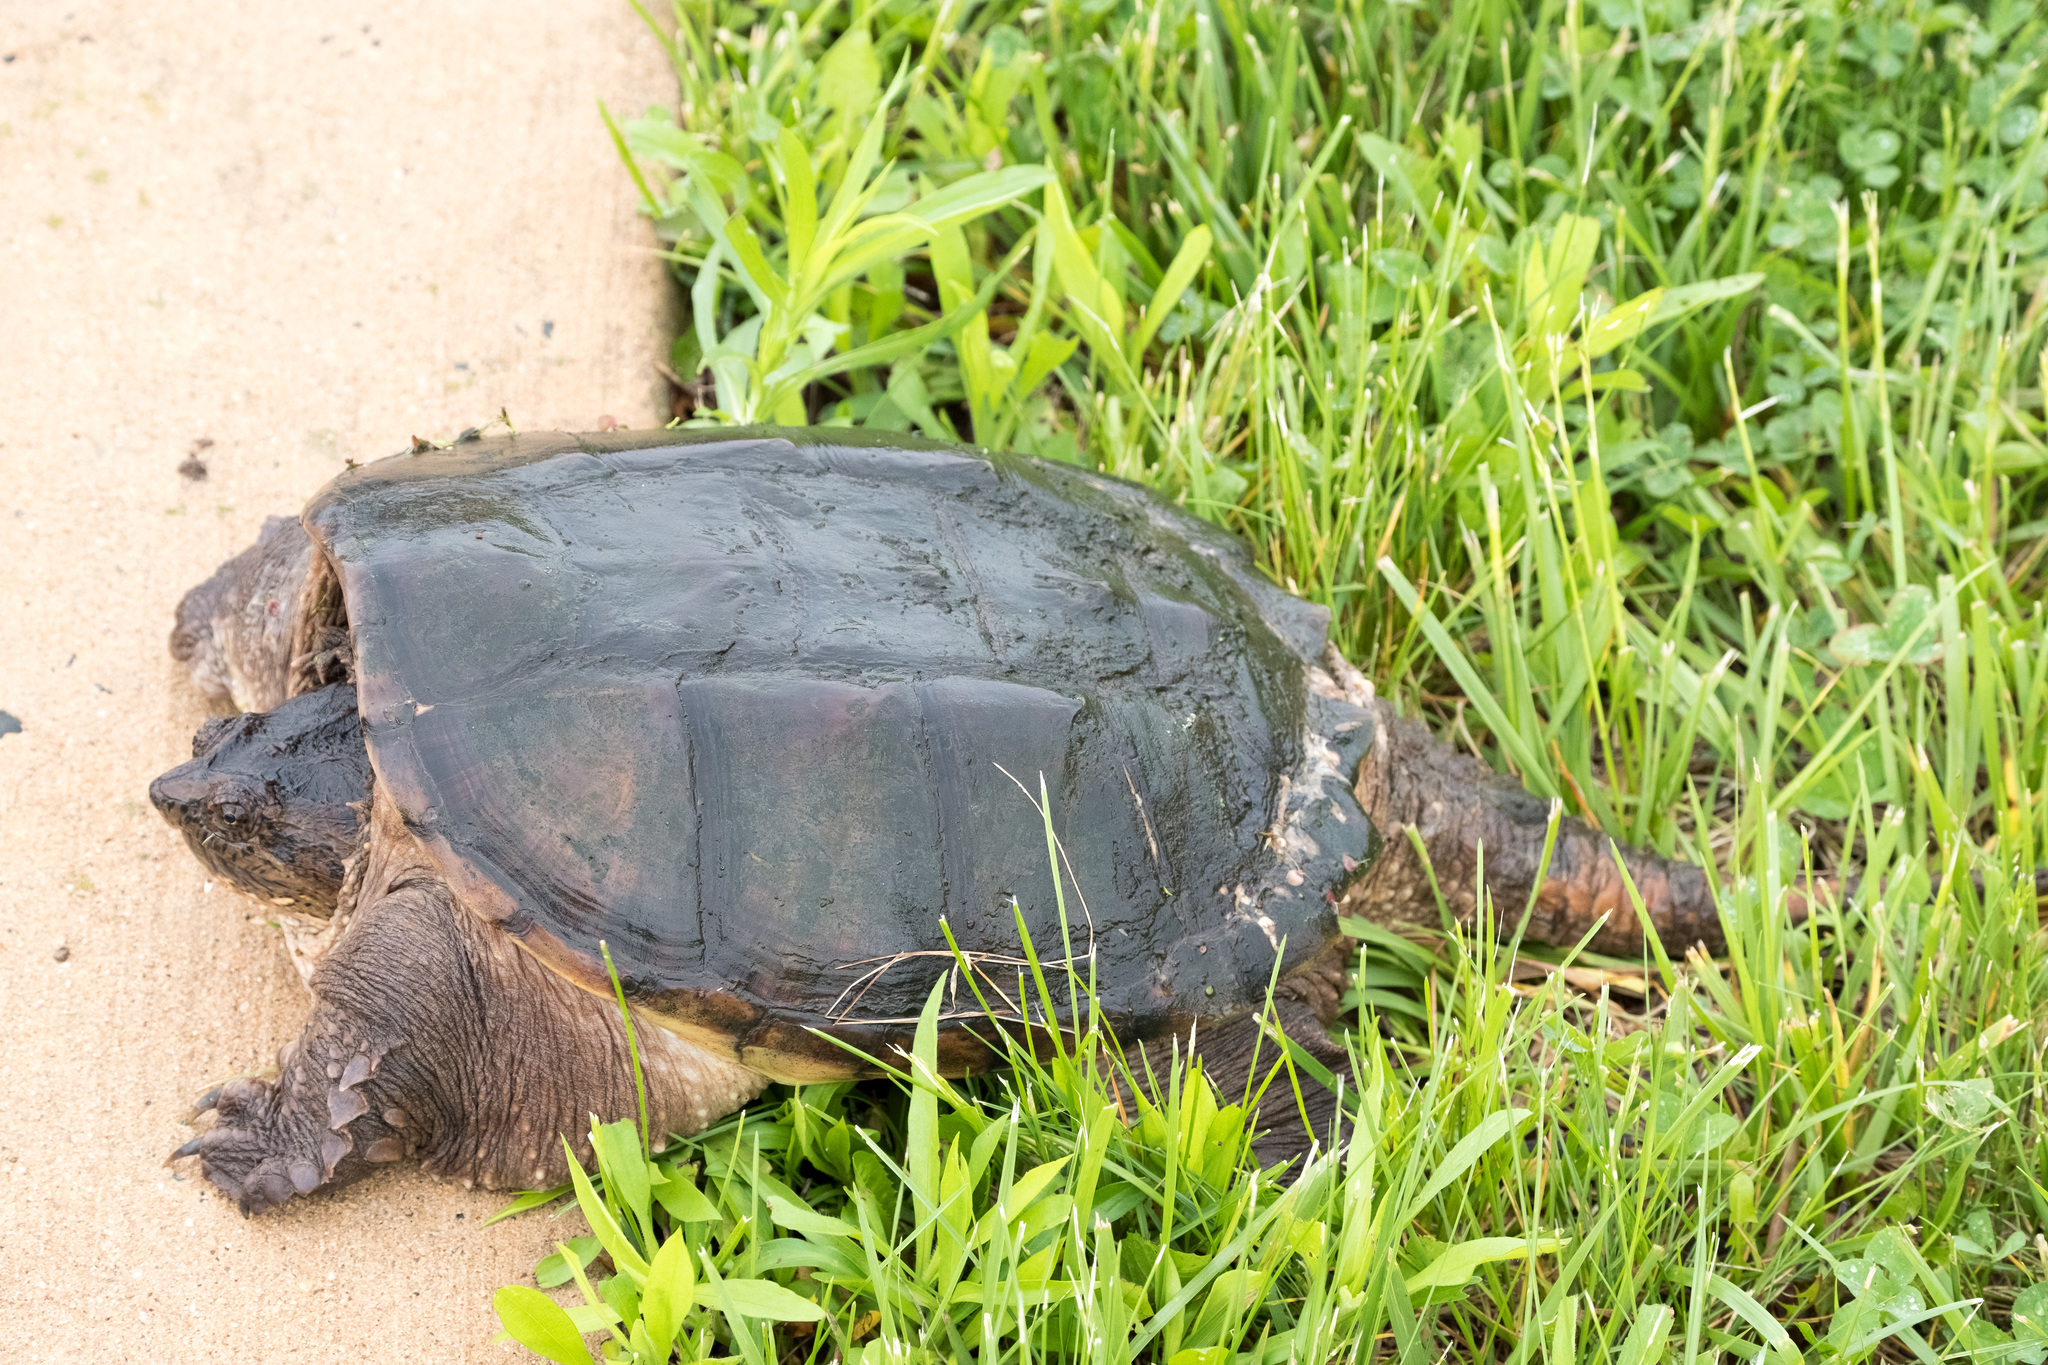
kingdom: Animalia
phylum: Chordata
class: Testudines
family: Chelydridae
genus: Chelydra
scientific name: Chelydra serpentina
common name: Common snapping turtle
